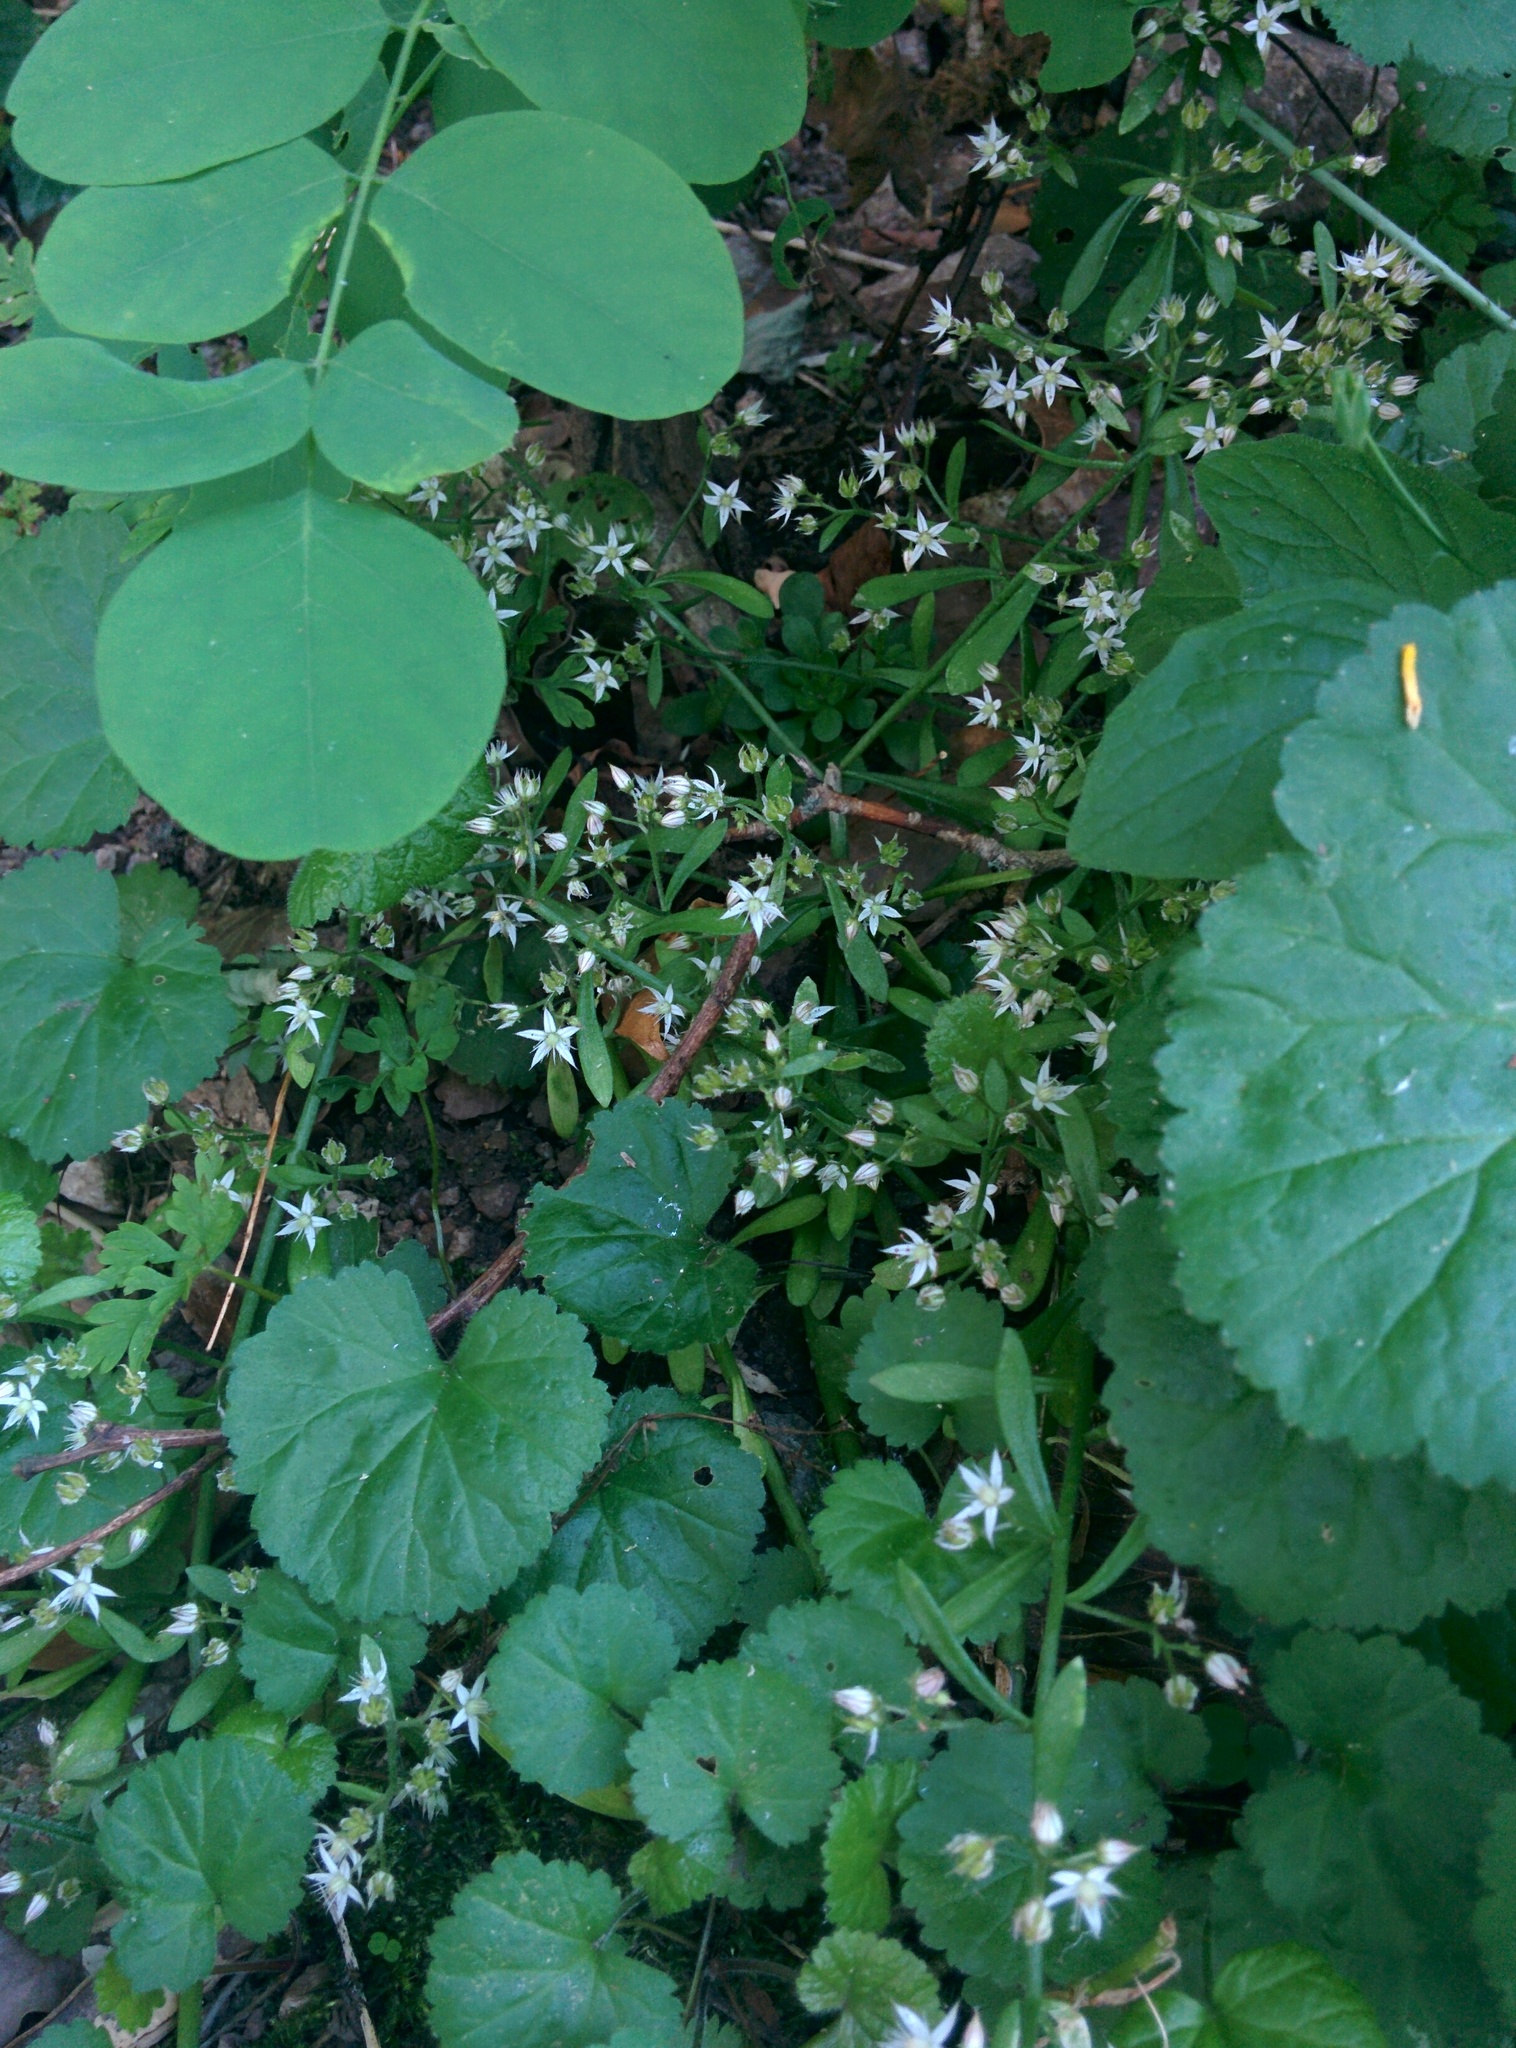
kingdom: Plantae
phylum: Tracheophyta
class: Magnoliopsida
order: Saxifragales
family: Crassulaceae
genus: Sedum
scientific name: Sedum cepaea
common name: Pink stonecrop
